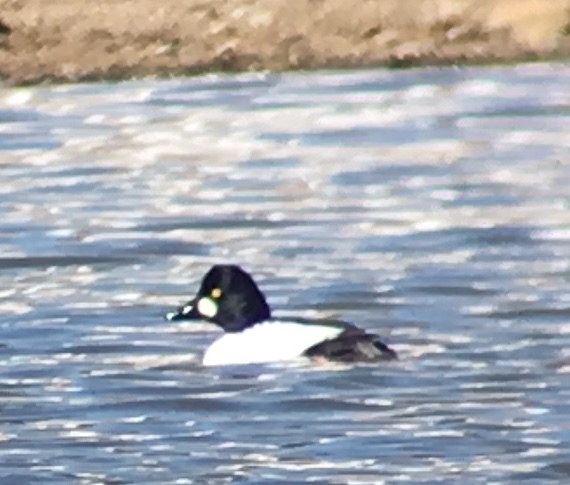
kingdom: Animalia
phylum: Chordata
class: Aves
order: Anseriformes
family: Anatidae
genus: Bucephala
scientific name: Bucephala clangula
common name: Common goldeneye
